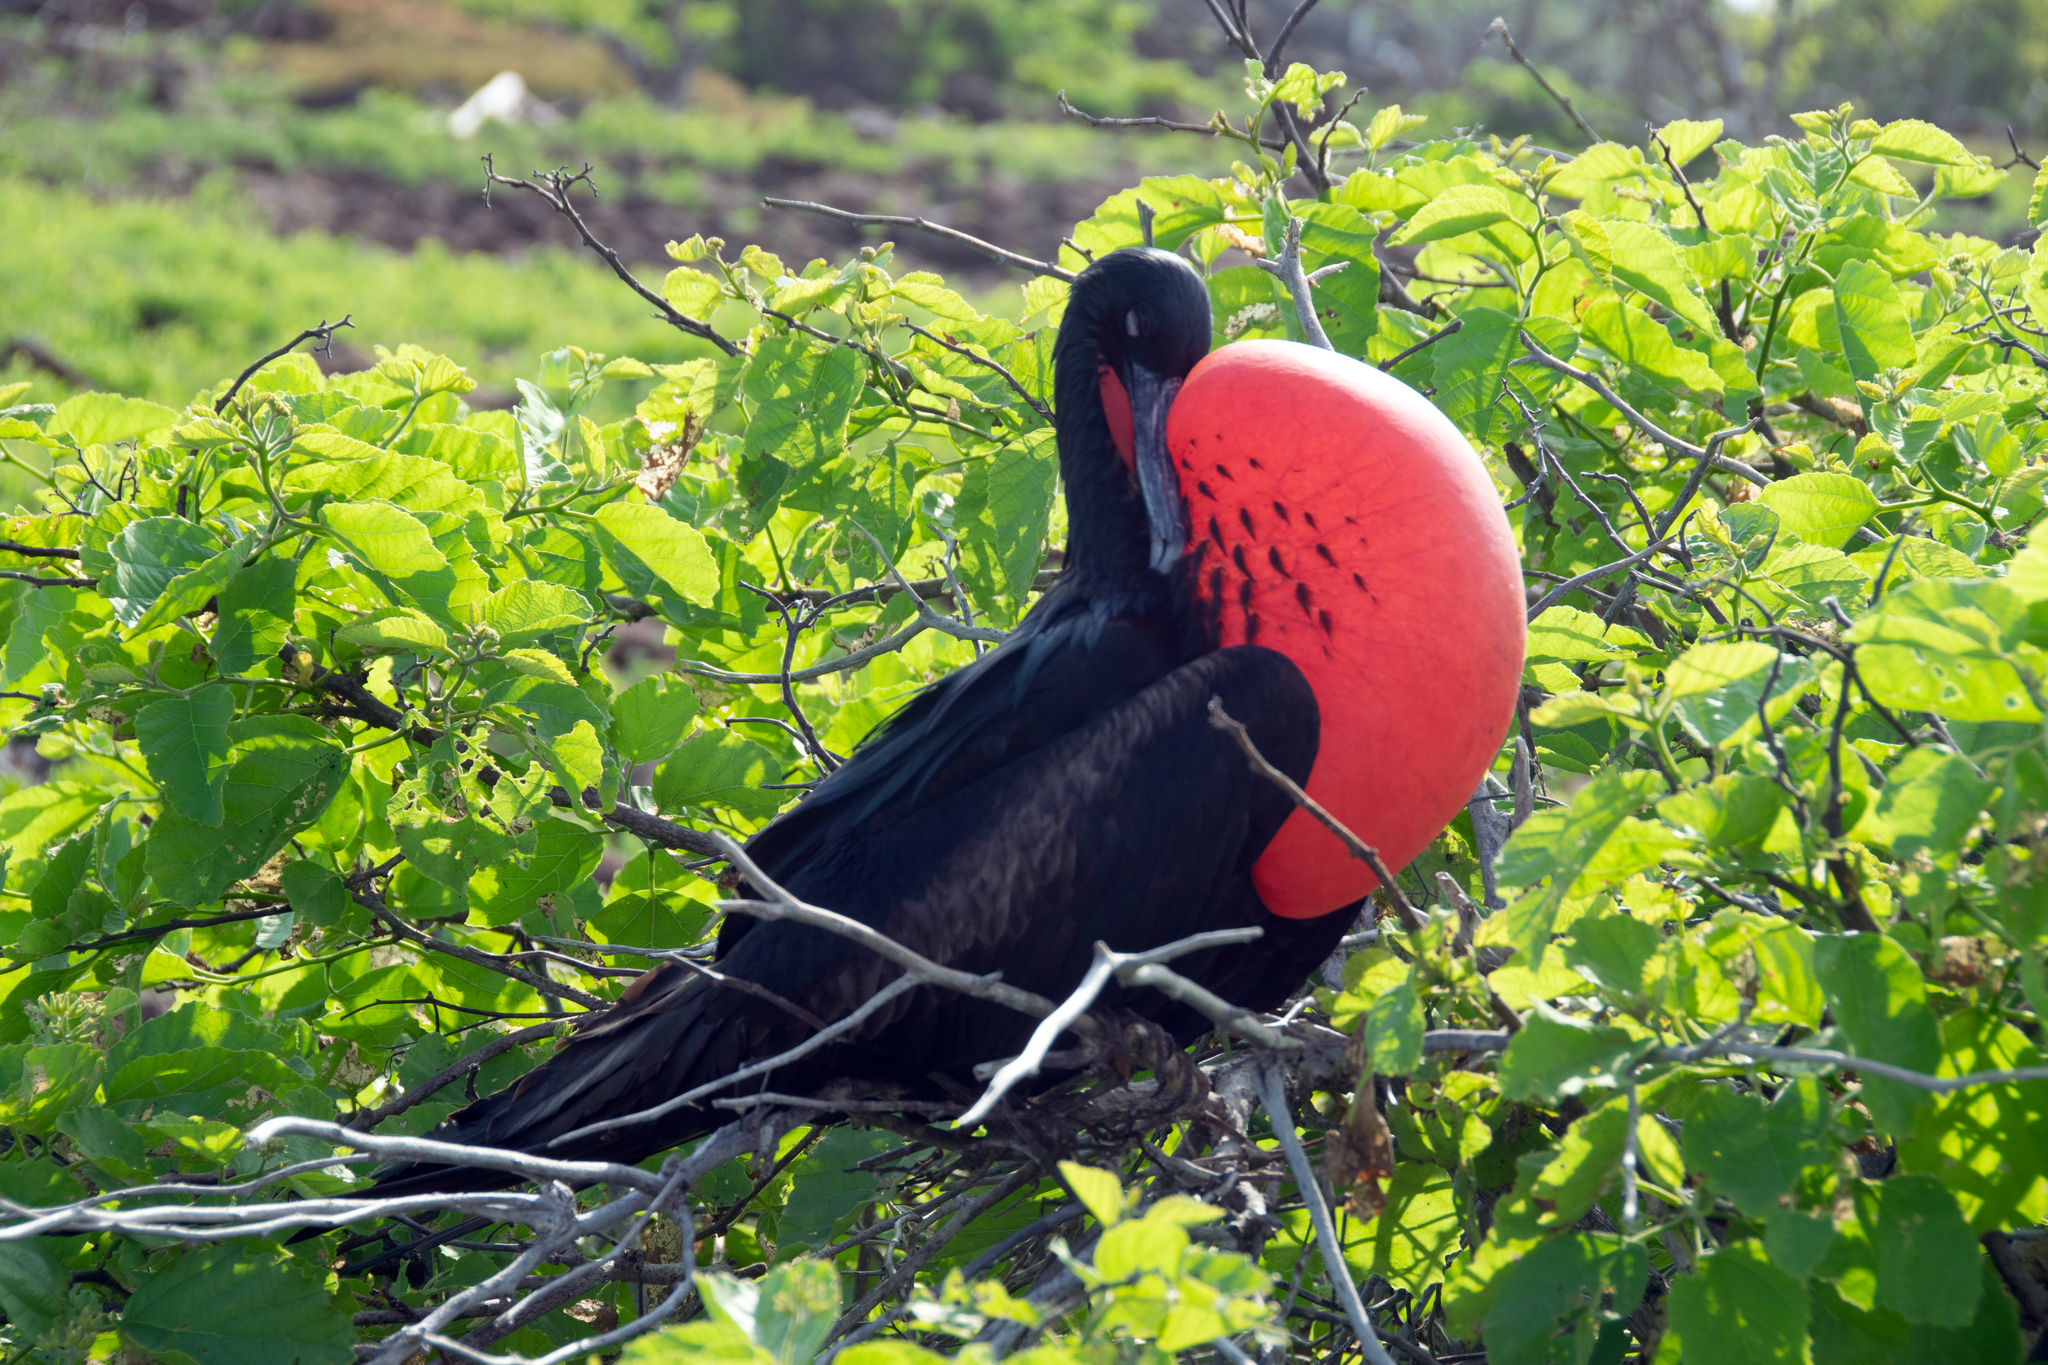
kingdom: Animalia
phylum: Chordata
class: Aves
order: Suliformes
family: Fregatidae
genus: Fregata
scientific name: Fregata minor
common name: Great frigatebird
